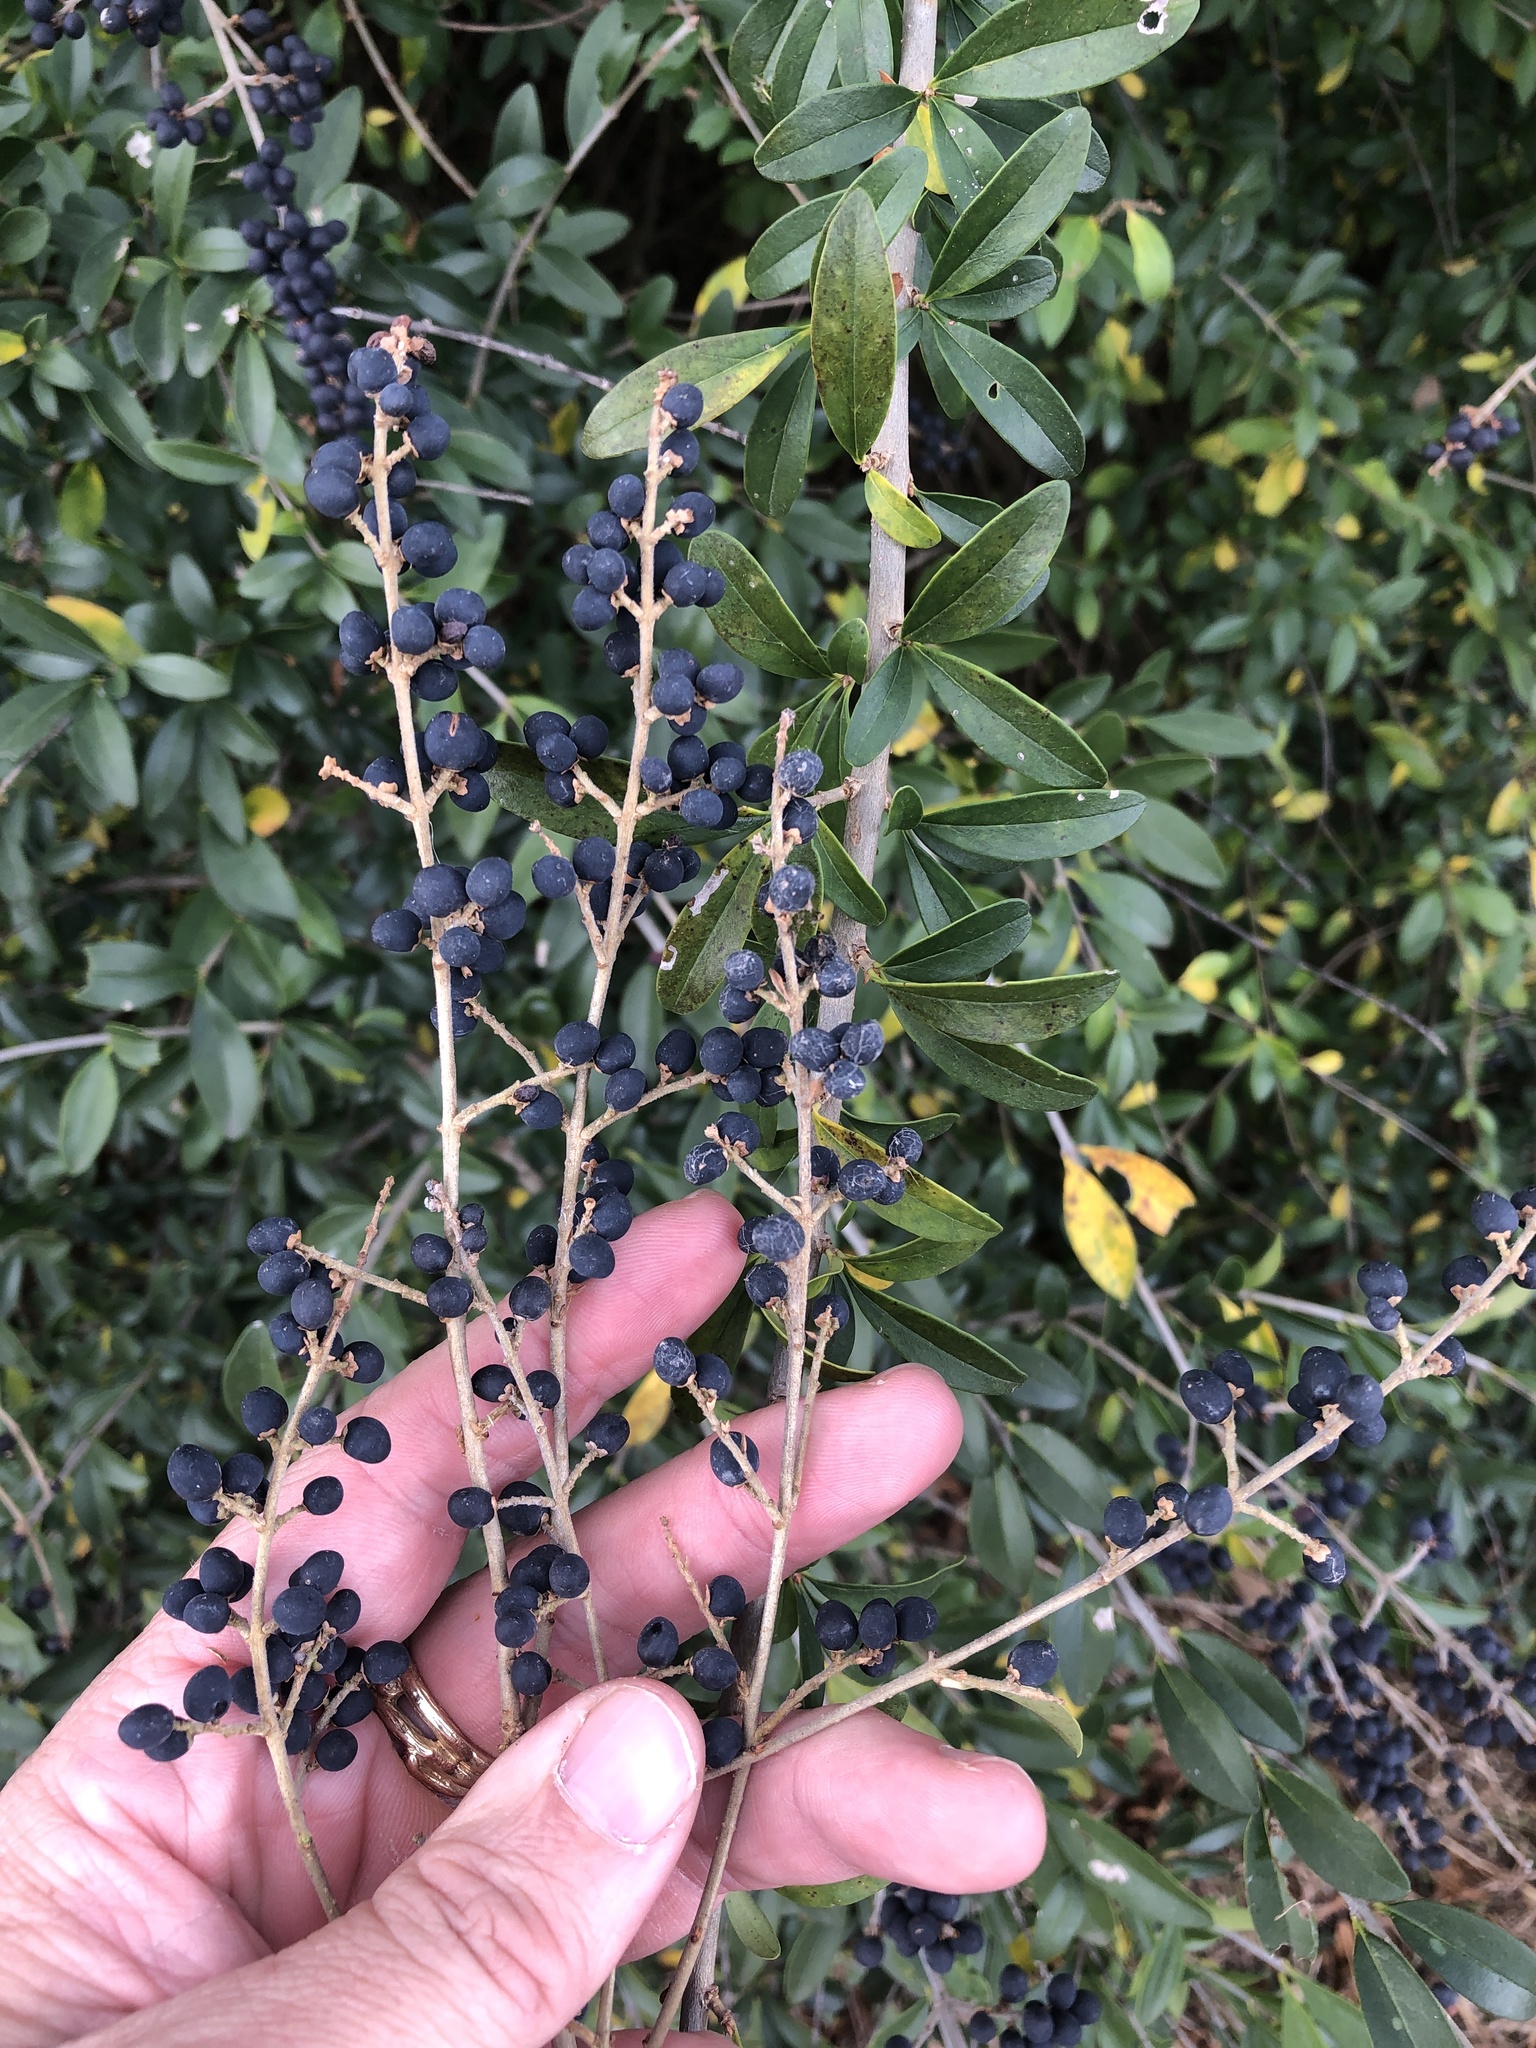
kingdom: Plantae
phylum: Tracheophyta
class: Magnoliopsida
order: Lamiales
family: Oleaceae
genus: Ligustrum
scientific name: Ligustrum quihoui
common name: Waxyleaf privet
